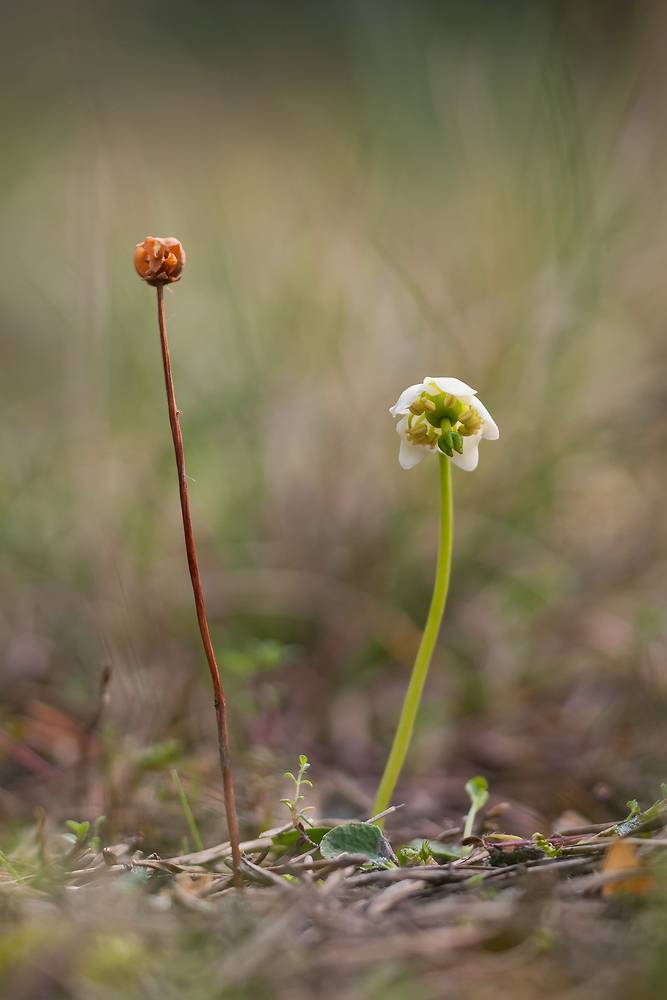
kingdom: Plantae
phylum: Tracheophyta
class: Magnoliopsida
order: Ericales
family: Ericaceae
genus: Moneses
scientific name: Moneses uniflora
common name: One-flowered wintergreen
